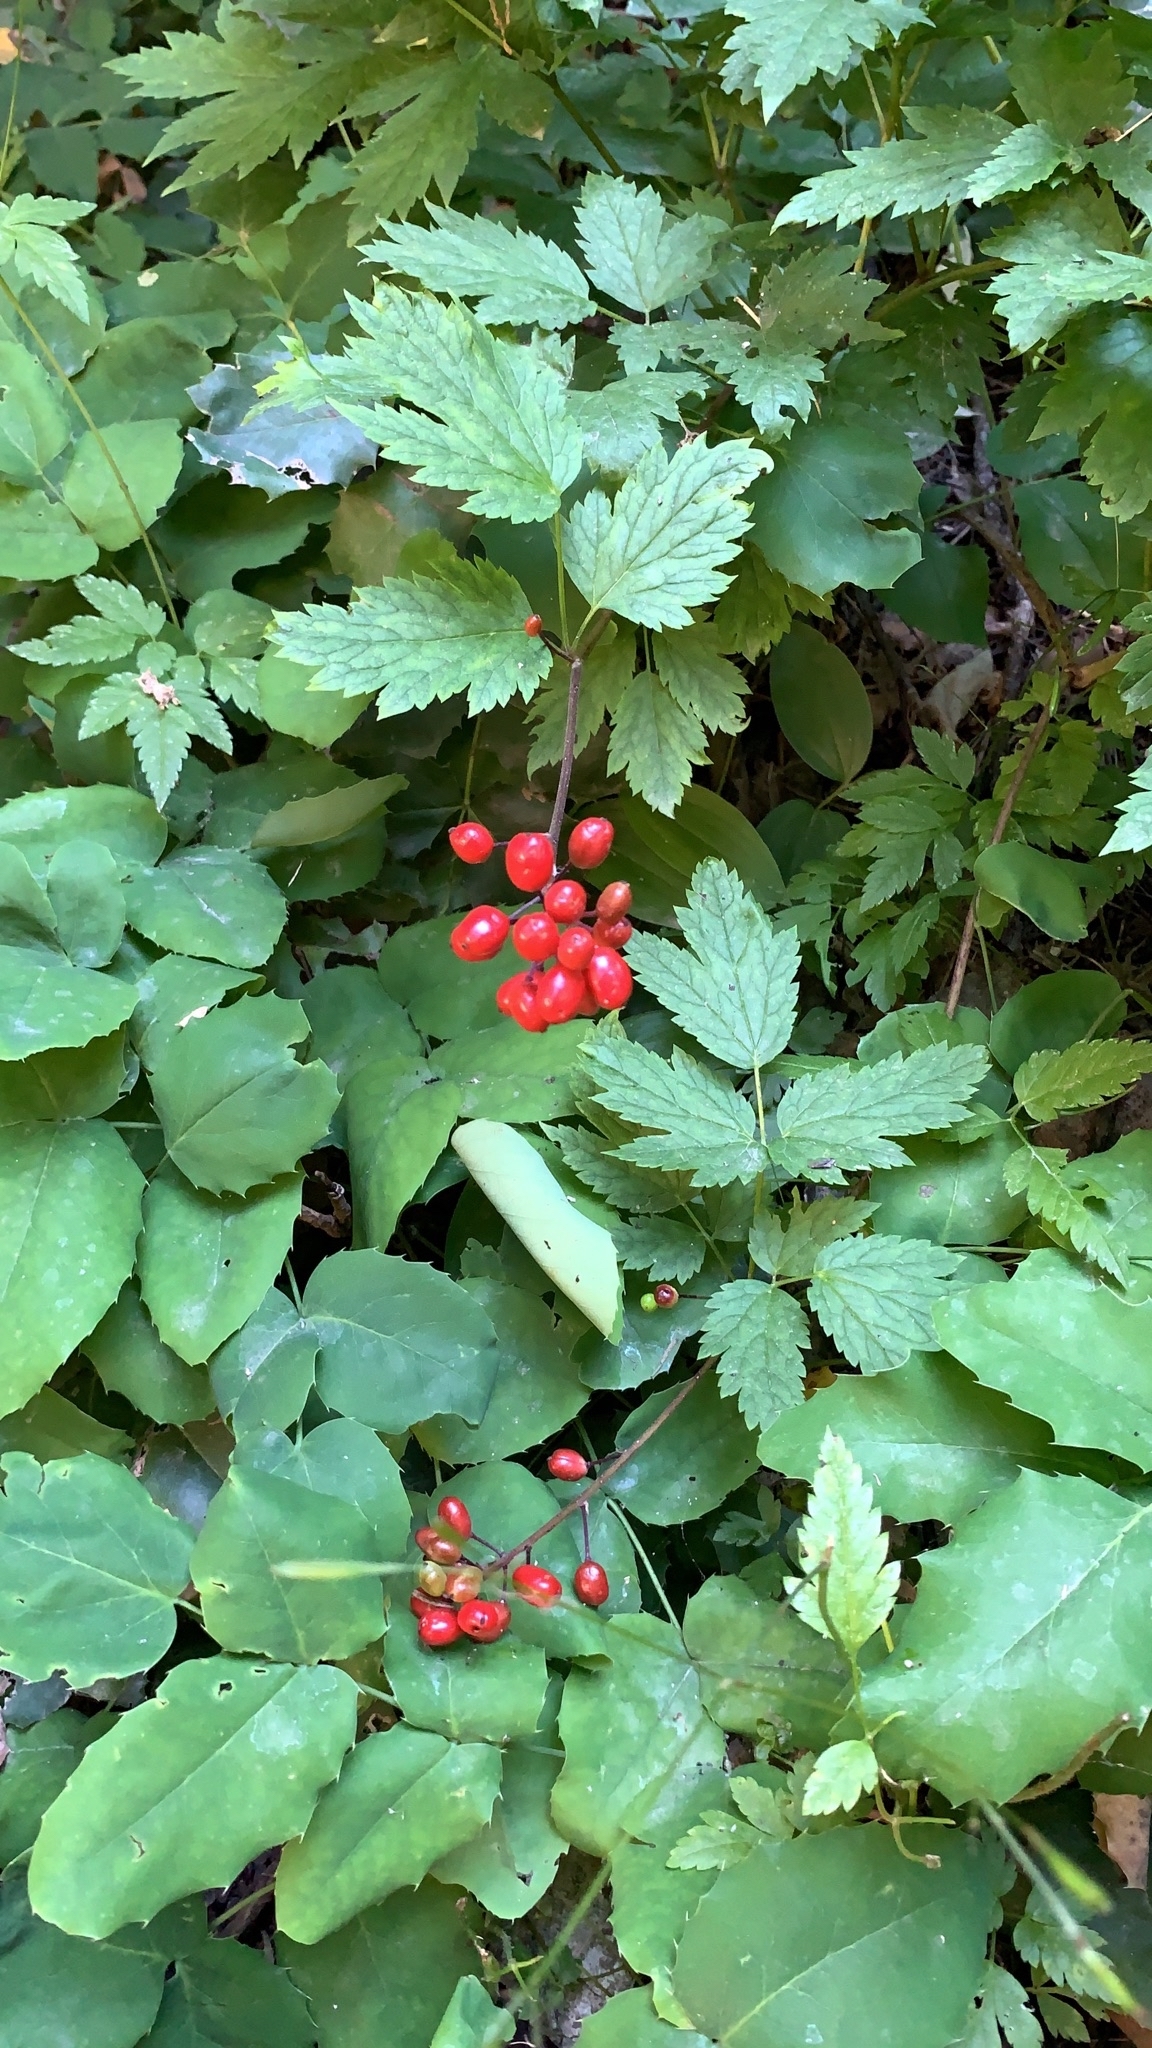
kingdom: Plantae
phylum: Tracheophyta
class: Magnoliopsida
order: Ranunculales
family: Ranunculaceae
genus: Actaea
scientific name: Actaea rubra
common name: Red baneberry
